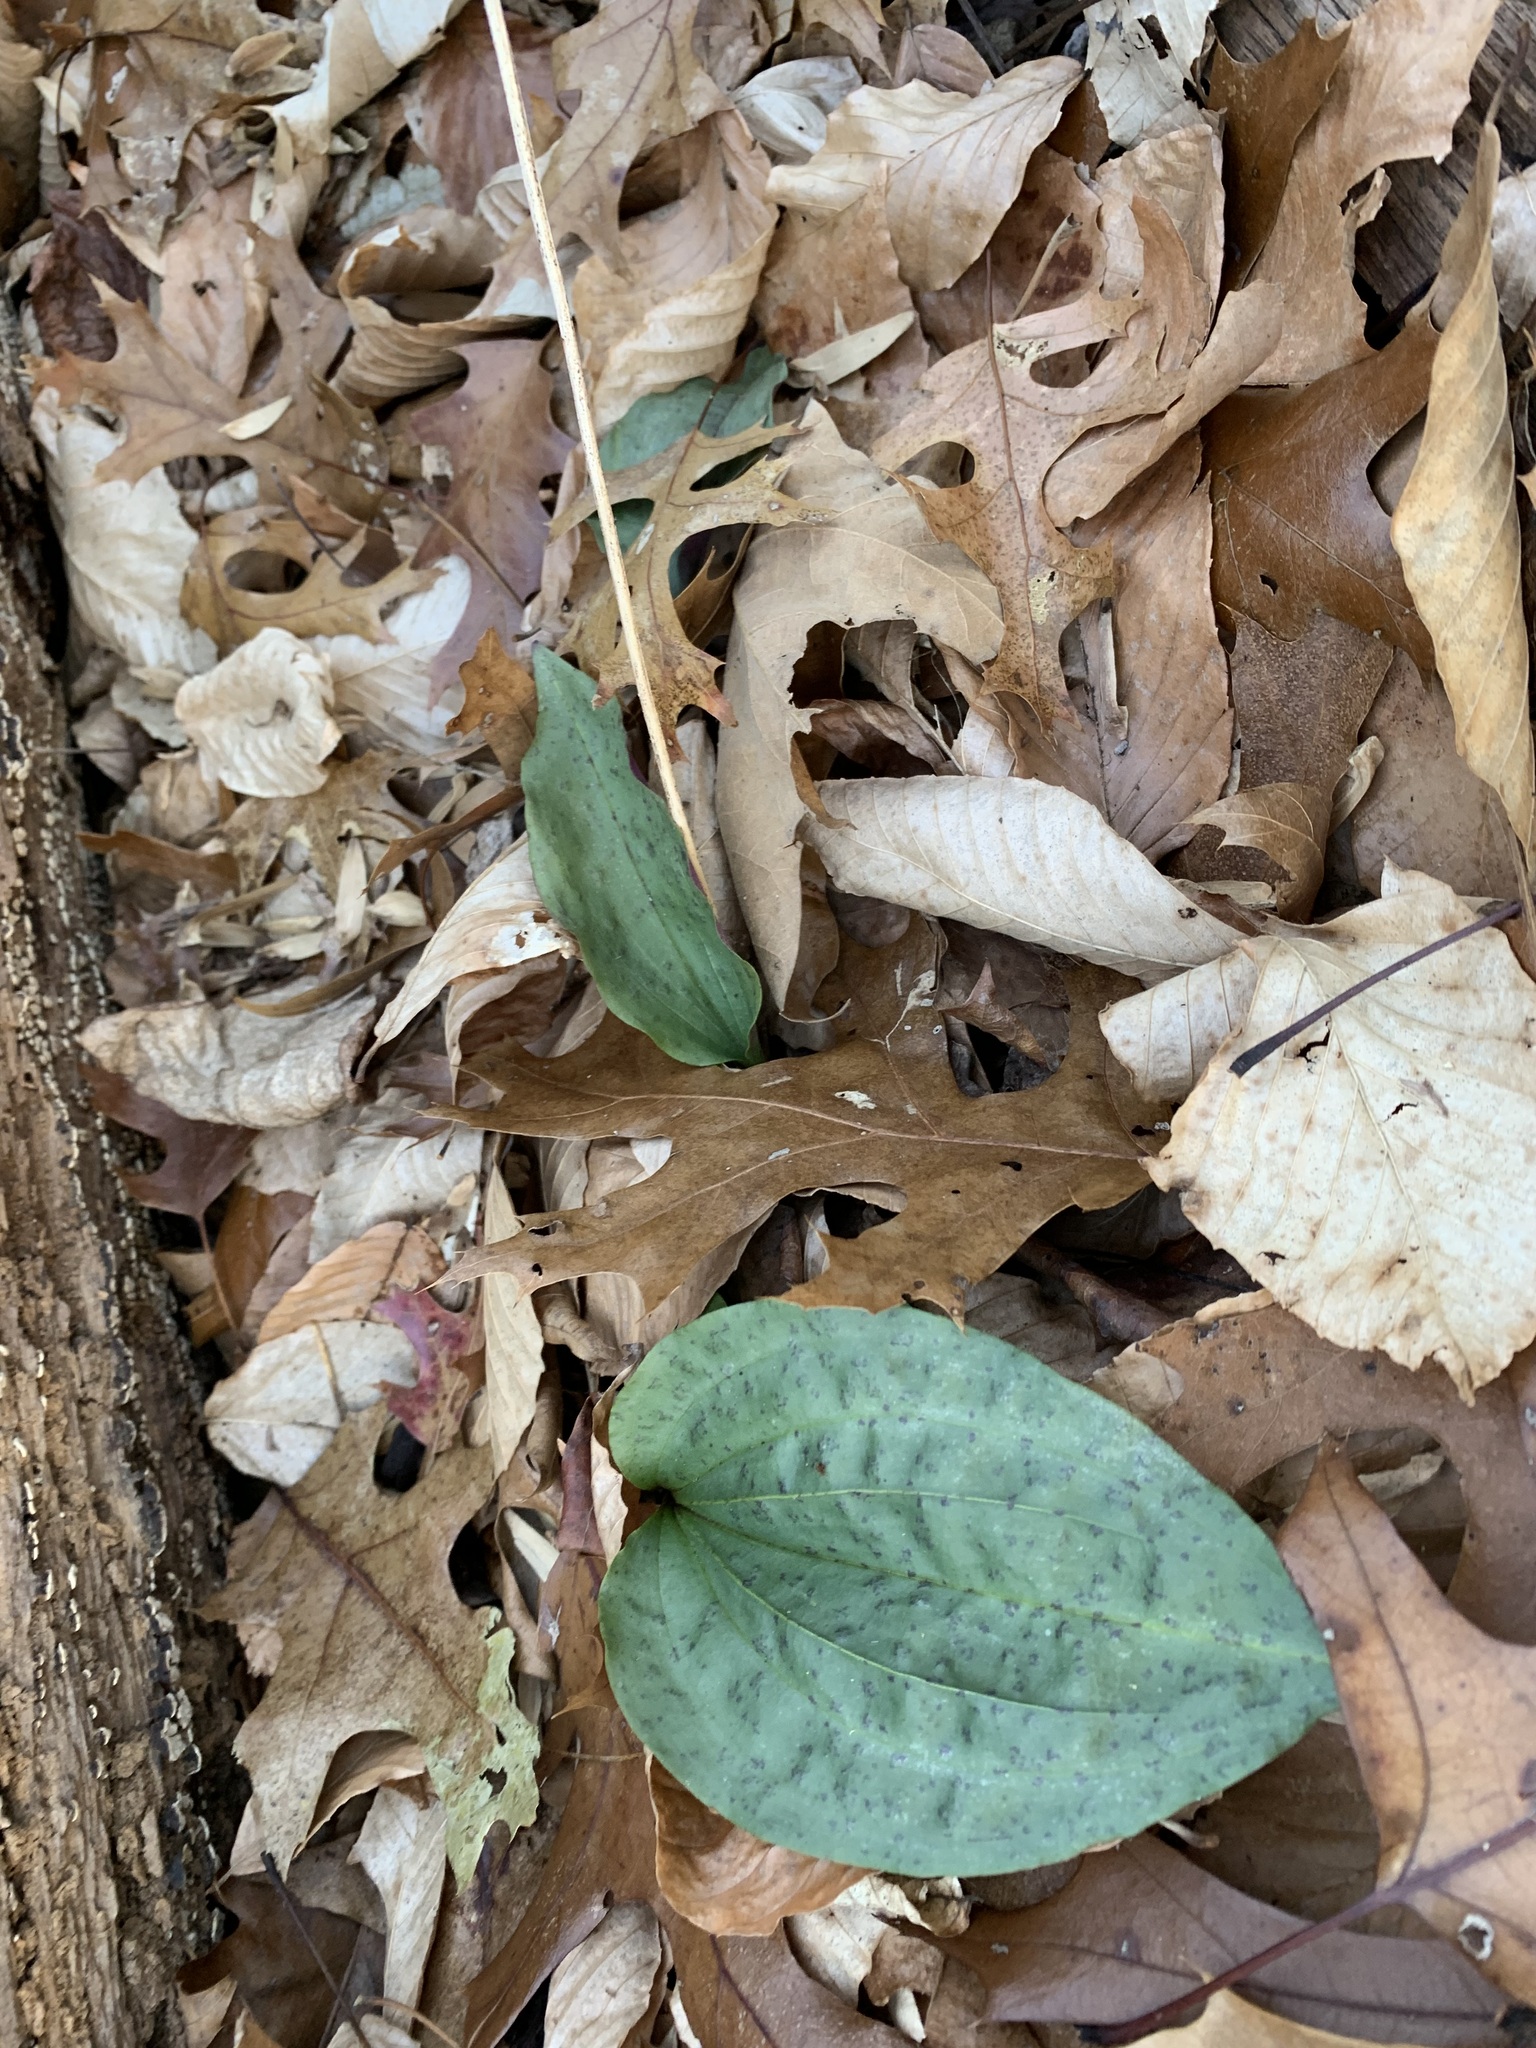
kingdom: Plantae
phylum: Tracheophyta
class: Liliopsida
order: Asparagales
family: Orchidaceae
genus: Tipularia
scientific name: Tipularia discolor
